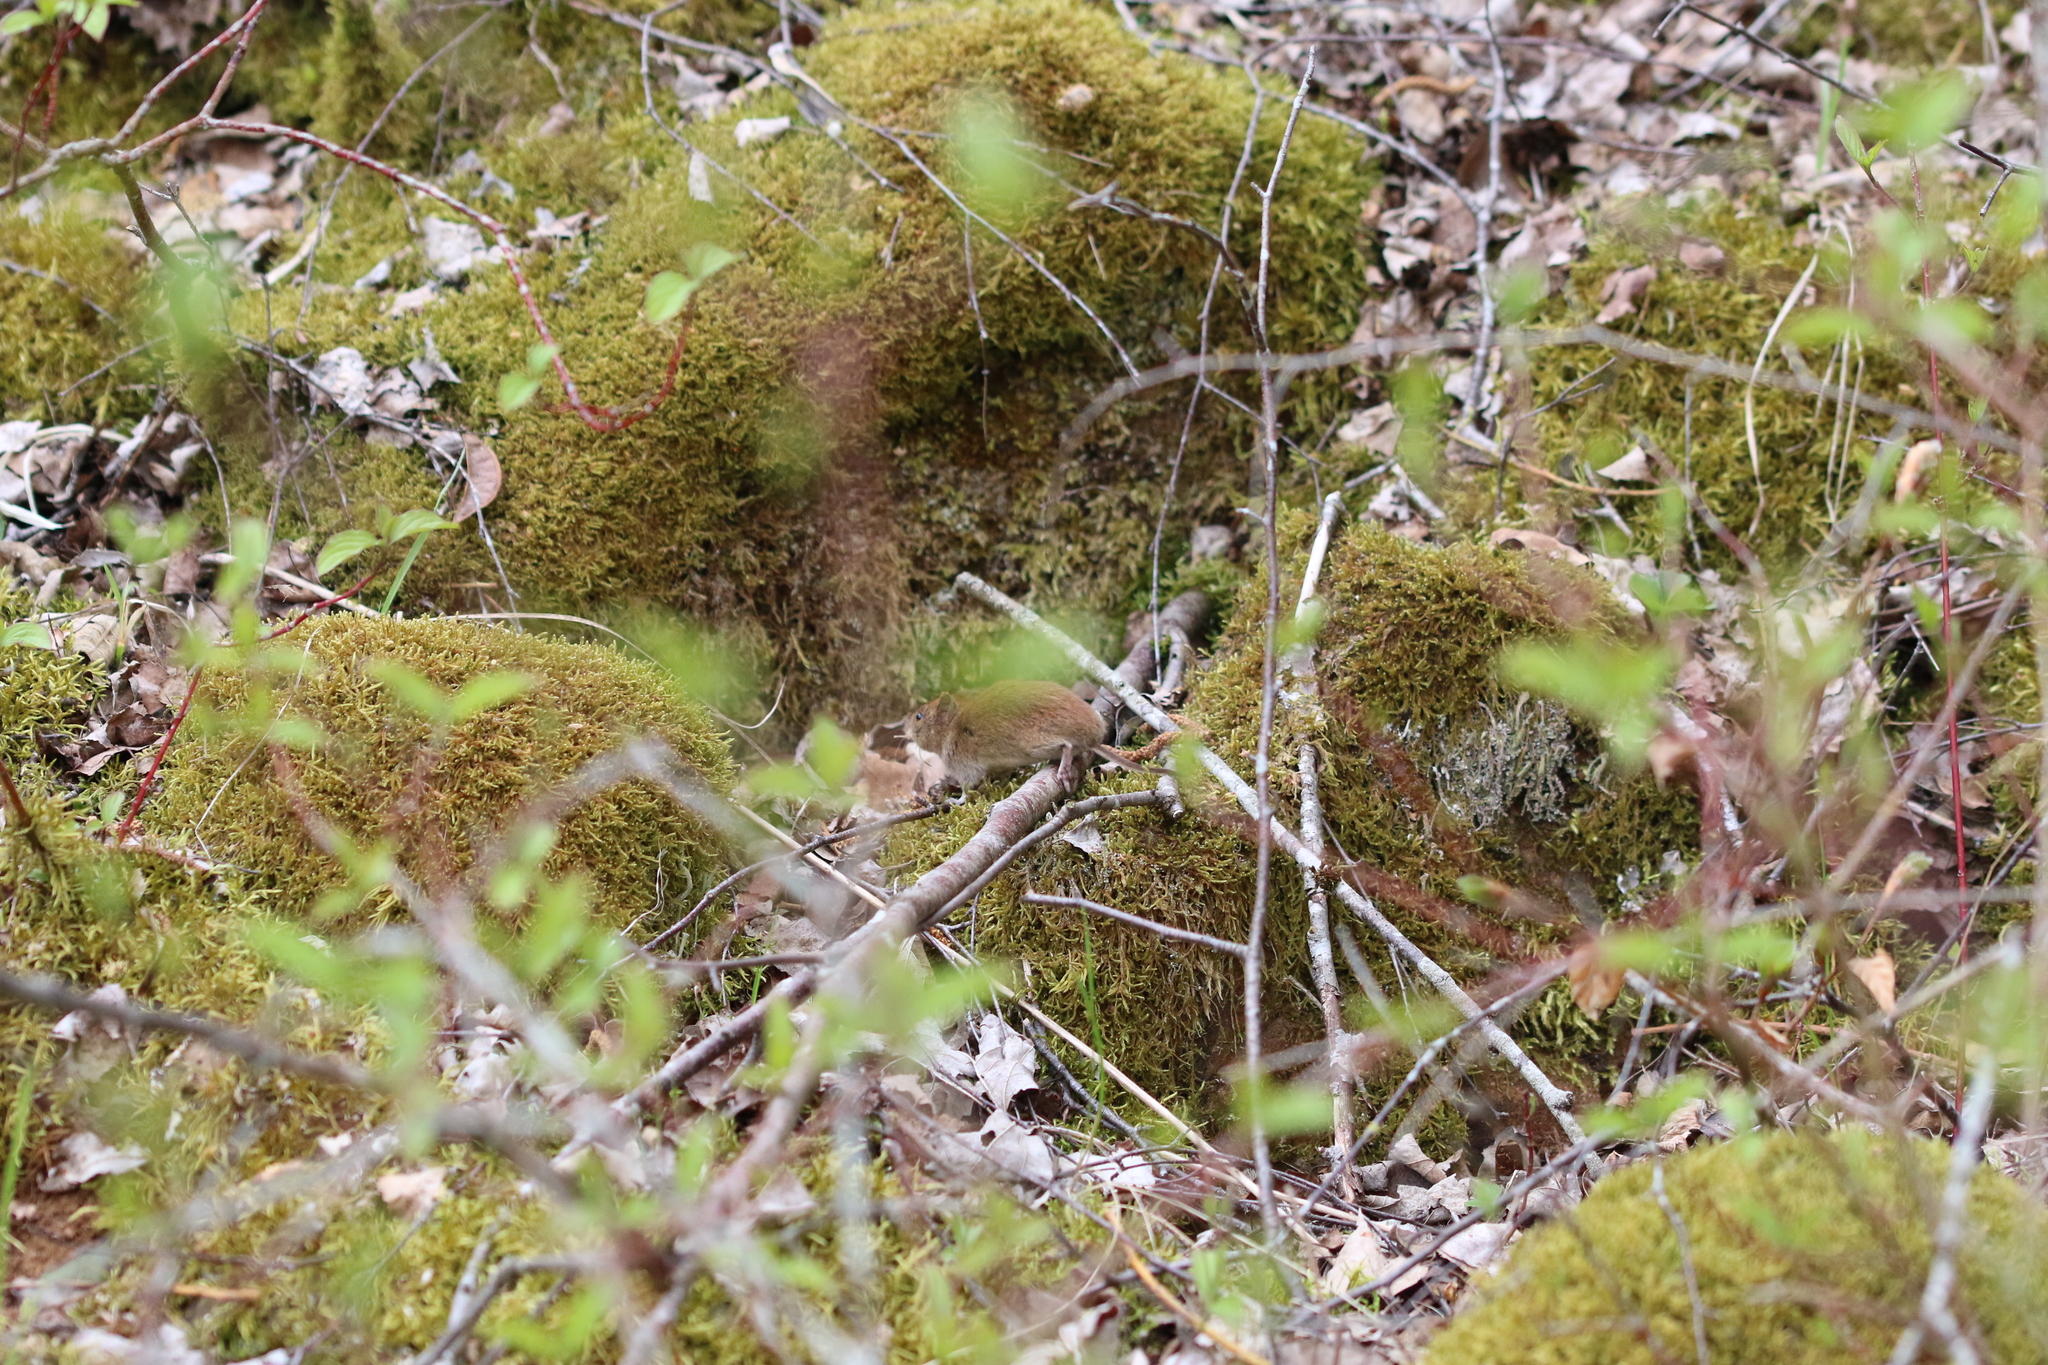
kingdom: Animalia
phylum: Chordata
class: Mammalia
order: Rodentia
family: Cricetidae
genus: Myodes
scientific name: Myodes glareolus
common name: Bank vole
